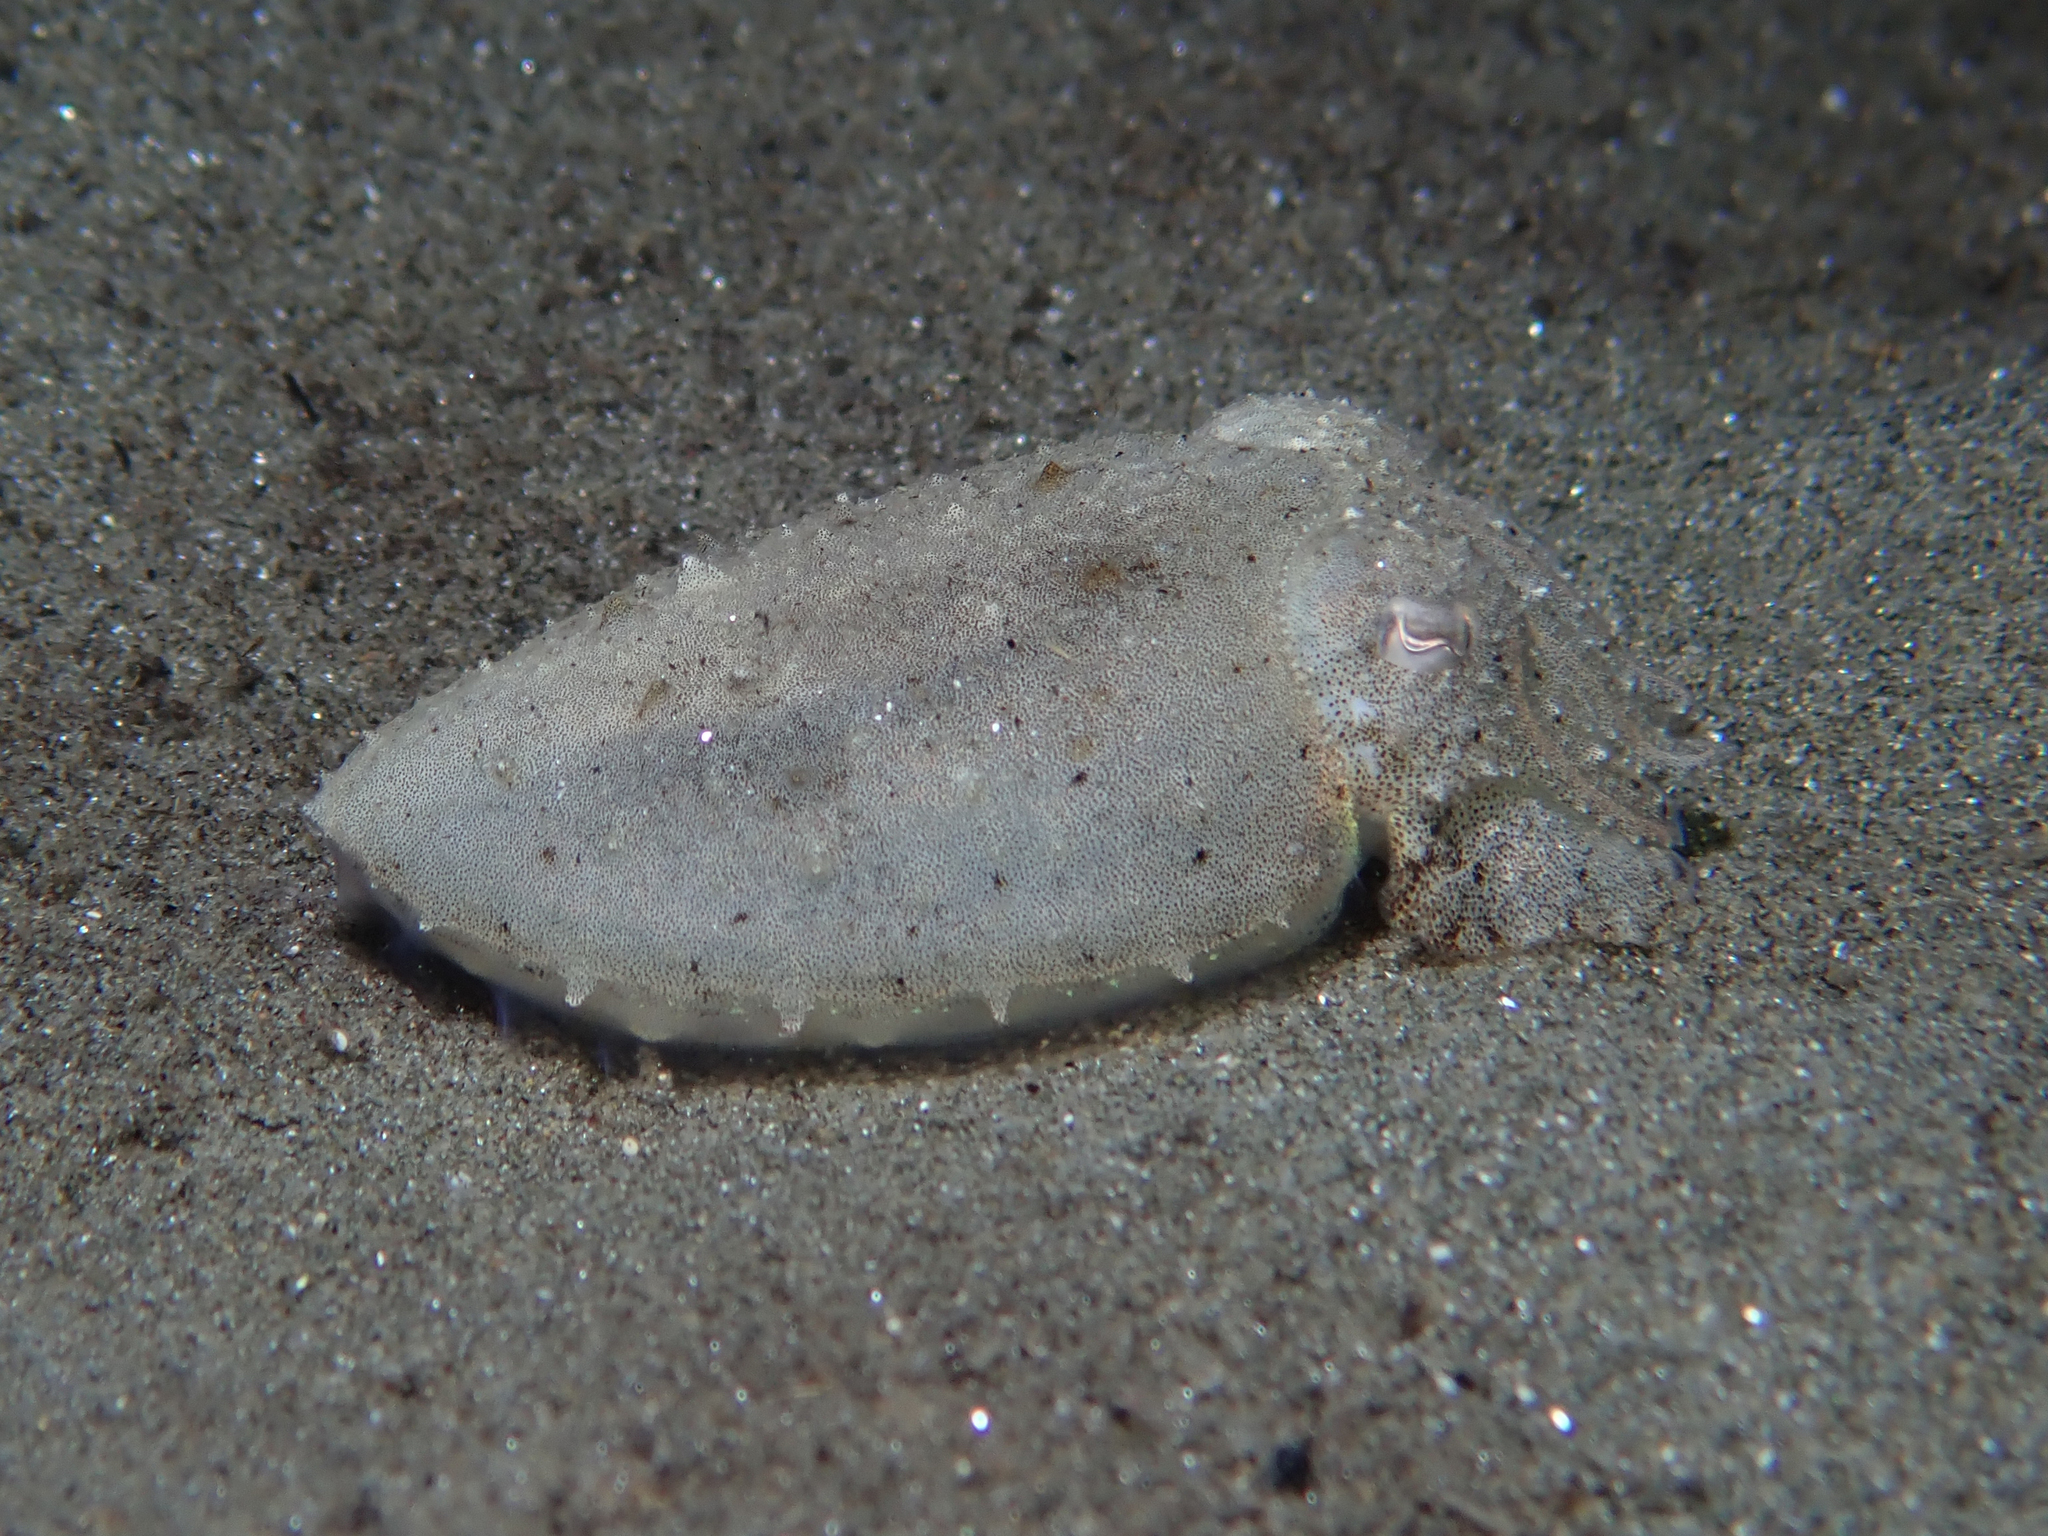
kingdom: Animalia
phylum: Mollusca
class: Cephalopoda
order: Sepiida
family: Sepiidae
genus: Sepia
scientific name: Sepia officinalis
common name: Common cuttlefish
